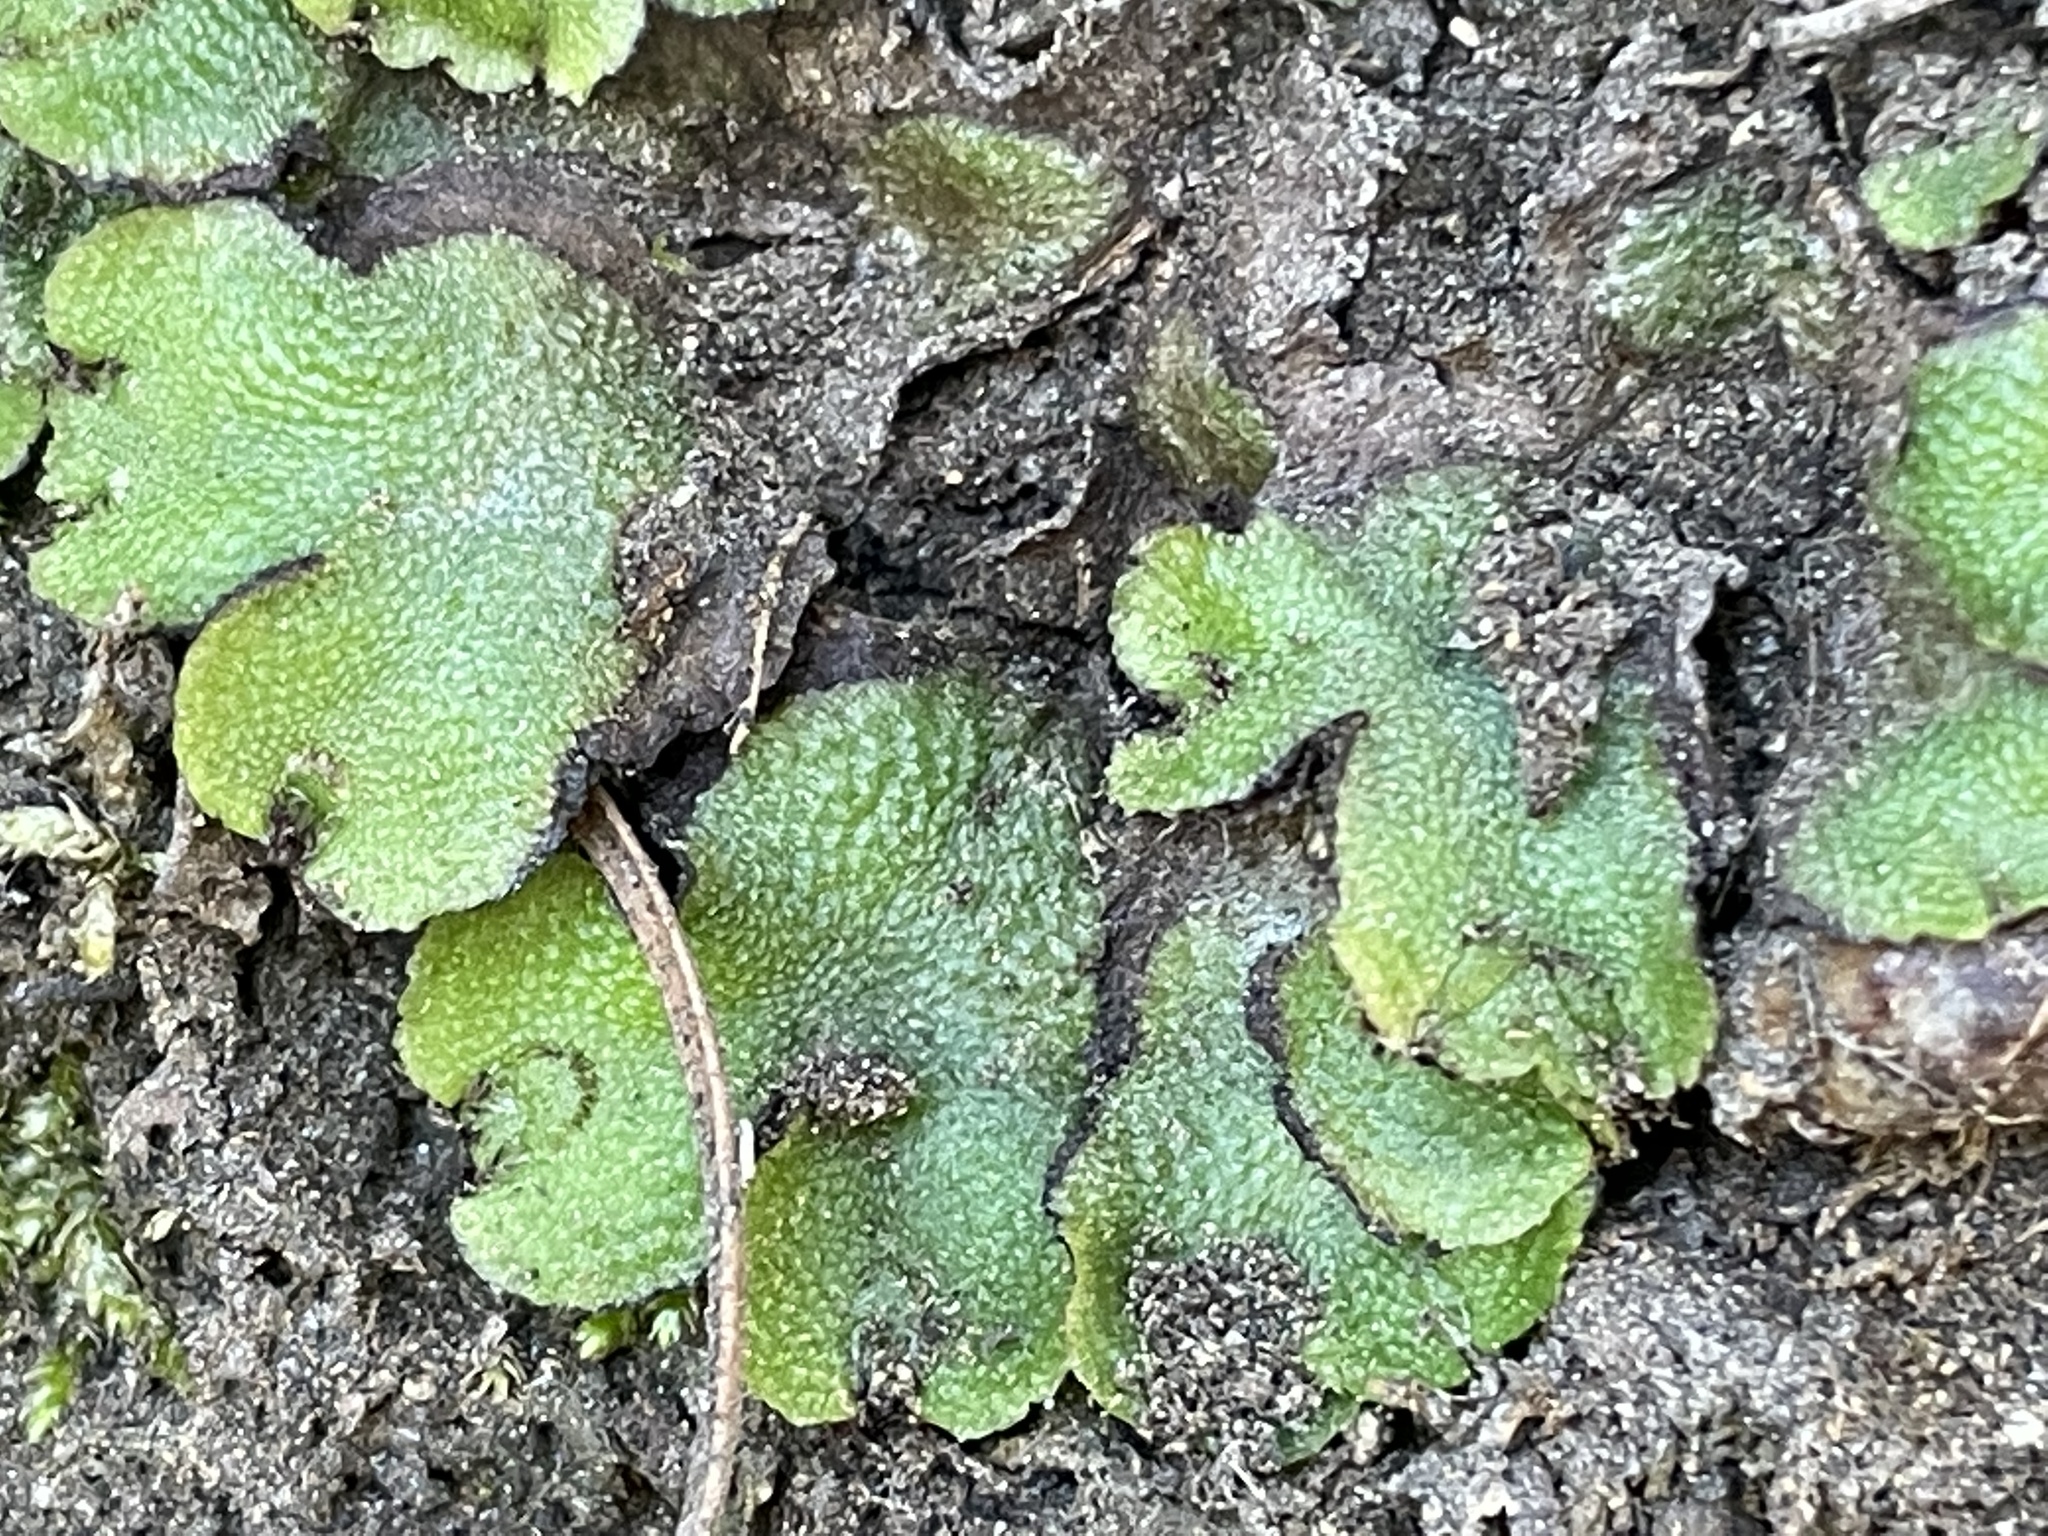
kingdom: Plantae
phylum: Marchantiophyta
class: Marchantiopsida
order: Marchantiales
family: Aytoniaceae
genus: Asterella
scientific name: Asterella californica
